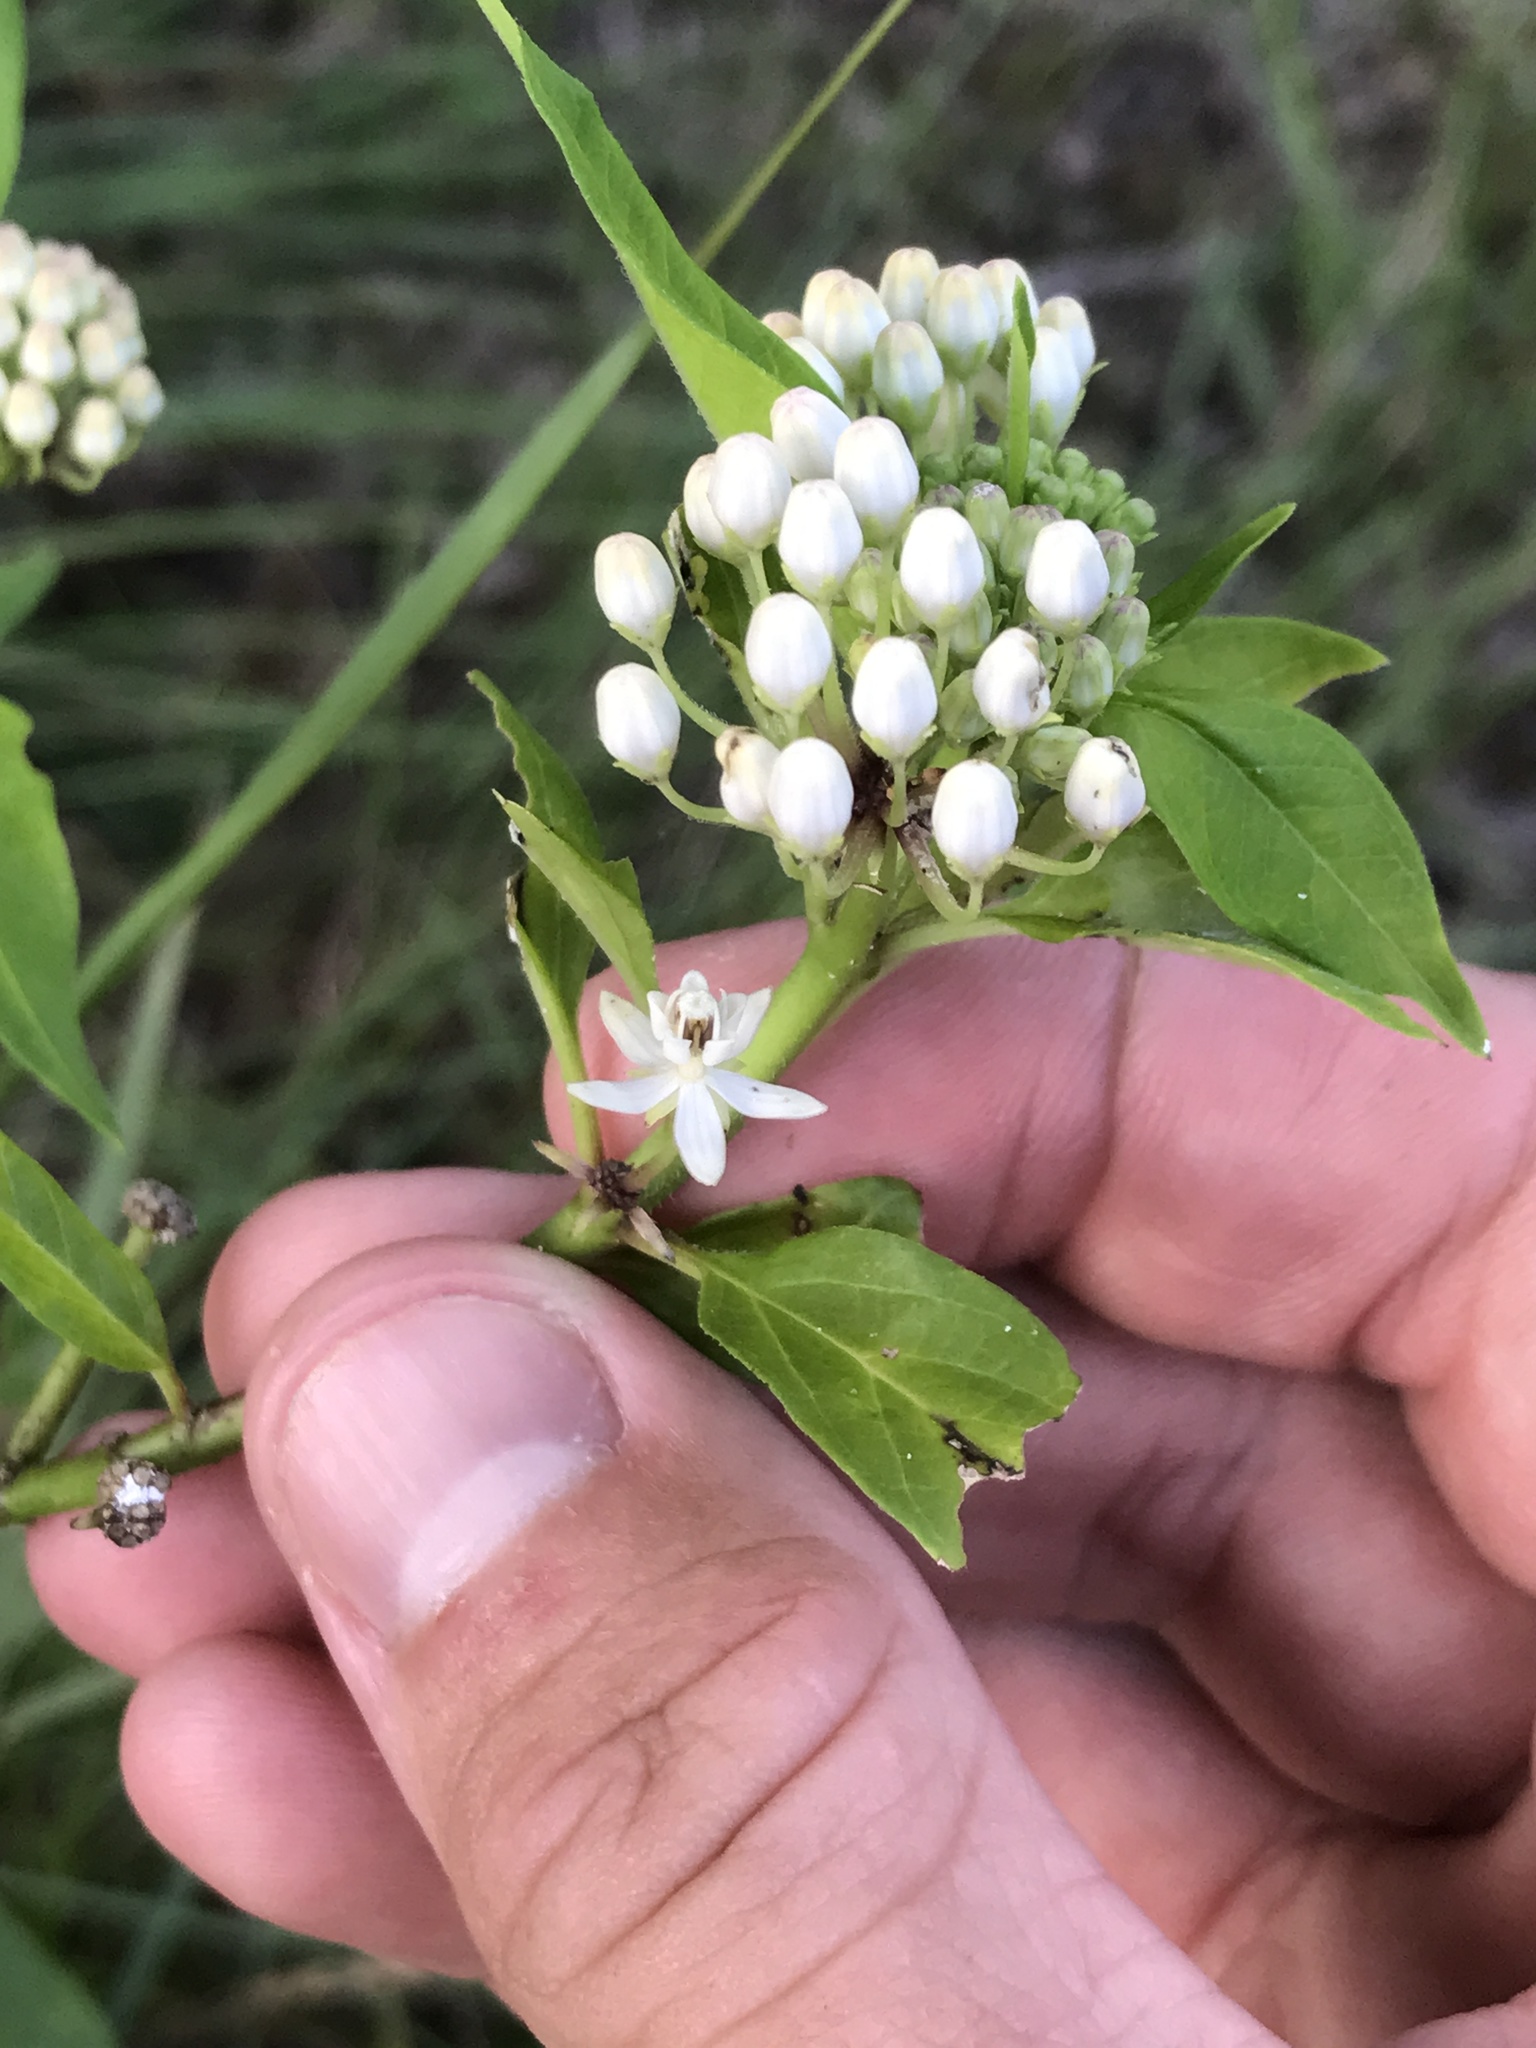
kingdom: Plantae
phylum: Tracheophyta
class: Magnoliopsida
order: Gentianales
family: Apocynaceae
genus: Asclepias
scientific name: Asclepias texana
